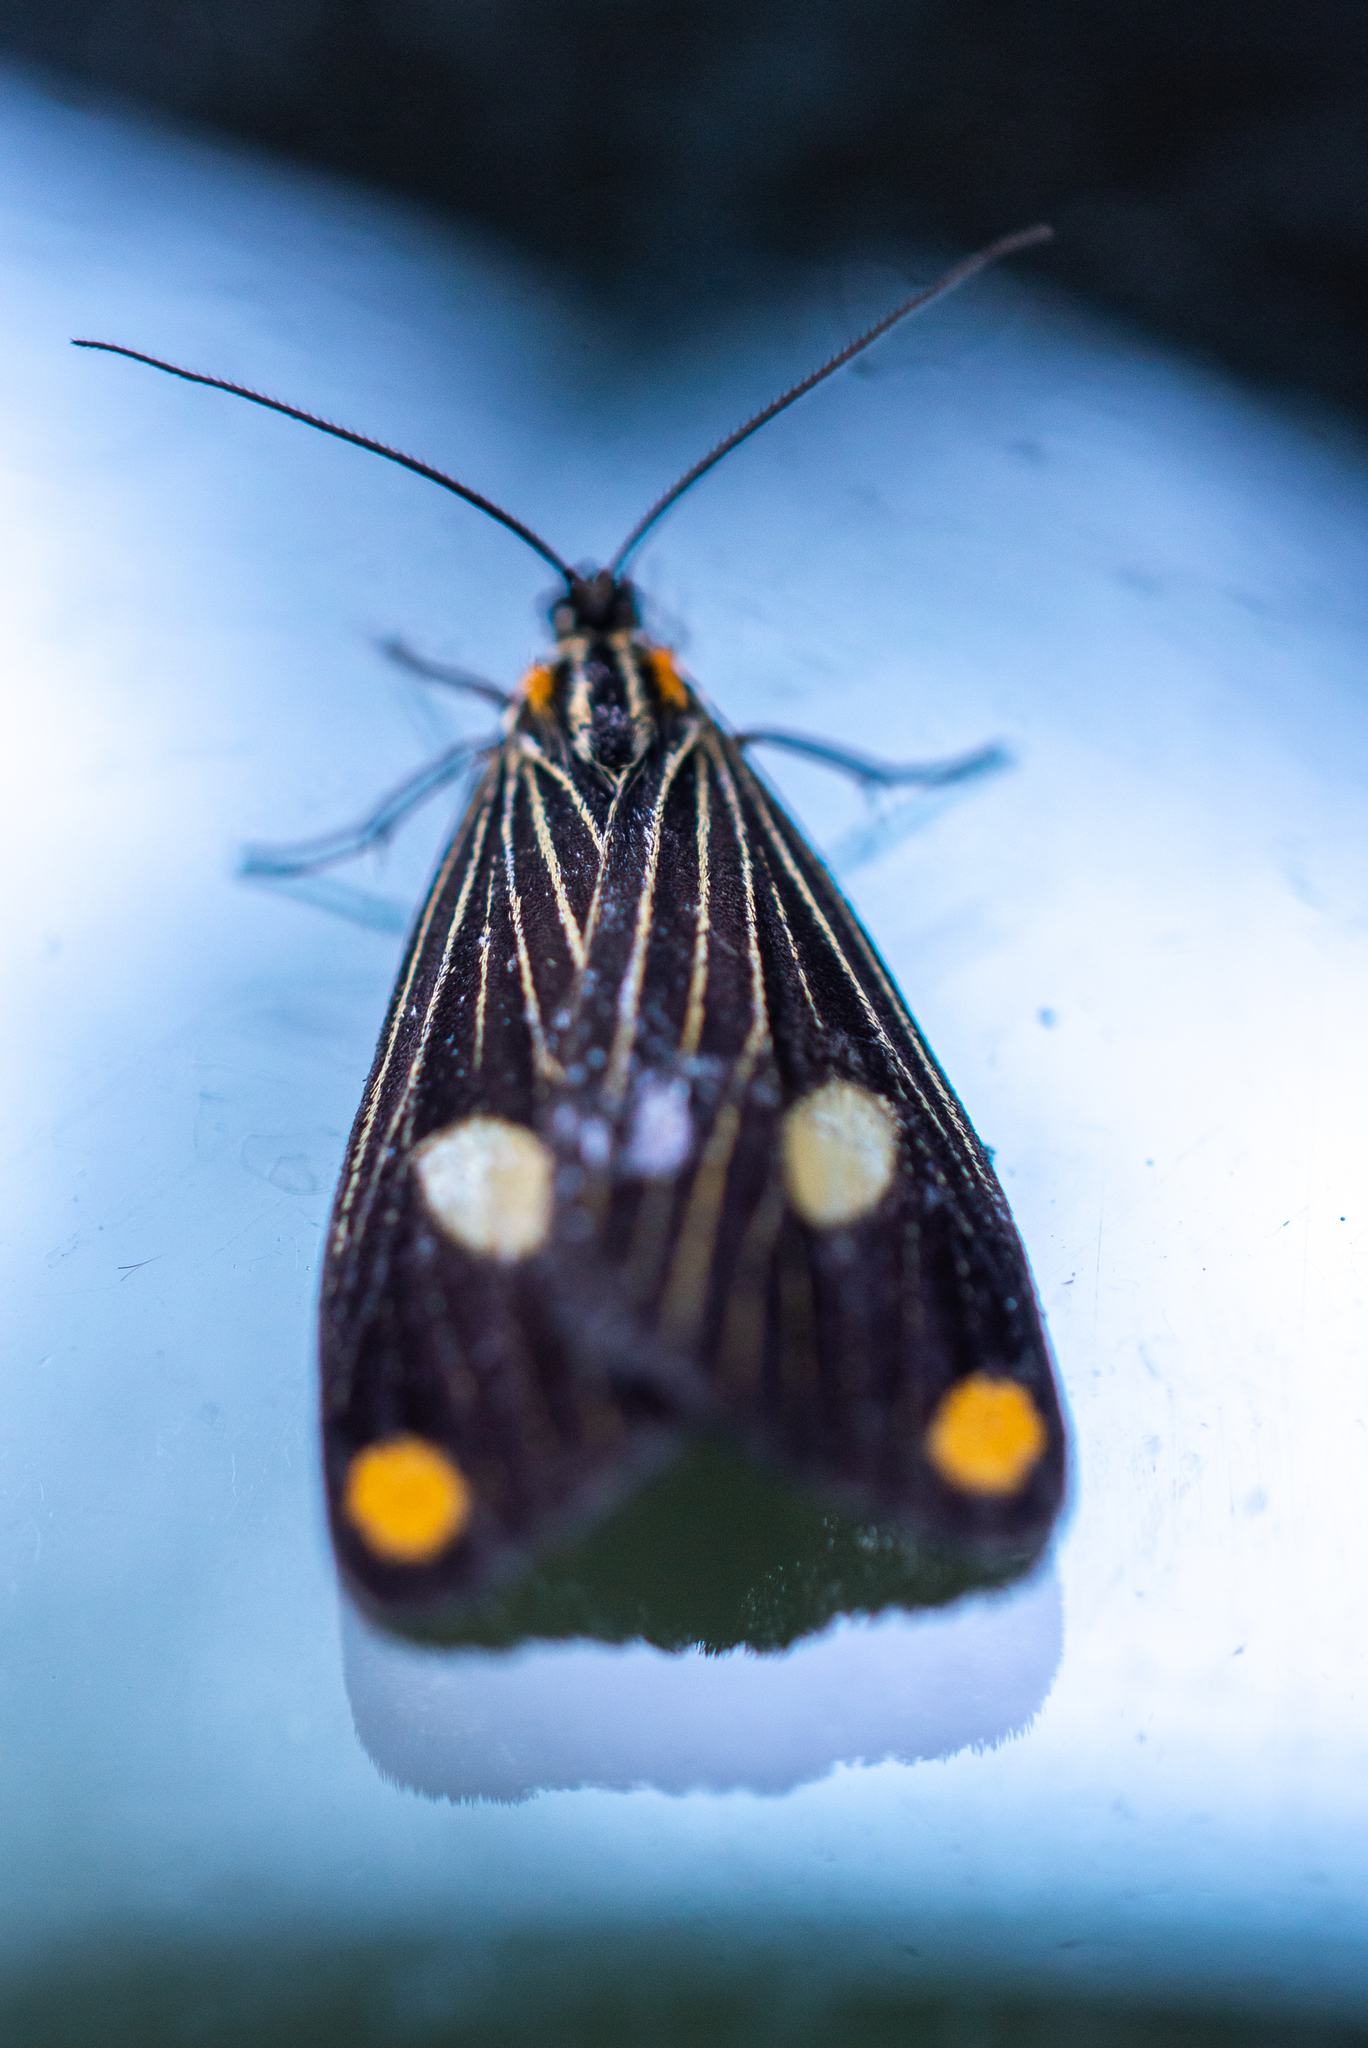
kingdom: Animalia
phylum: Arthropoda
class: Insecta
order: Lepidoptera
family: Notodontidae
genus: Polypoetes
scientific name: Polypoetes
